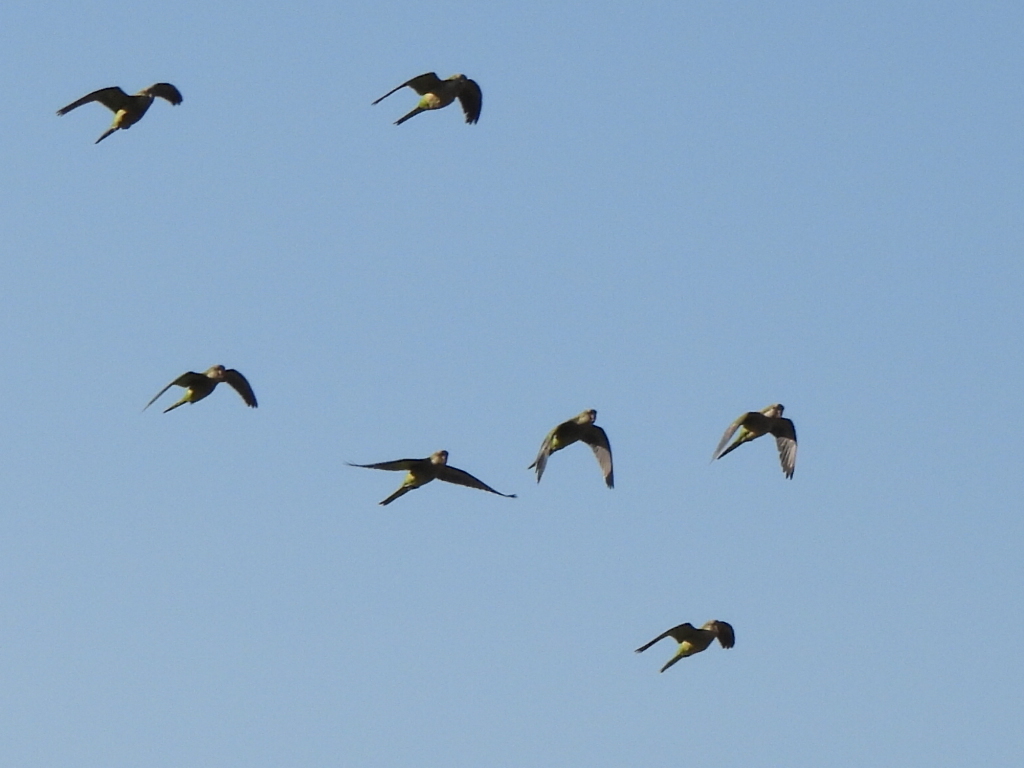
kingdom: Animalia
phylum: Chordata
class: Aves
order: Psittaciformes
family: Psittacidae
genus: Myiopsitta
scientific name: Myiopsitta monachus
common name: Monk parakeet
